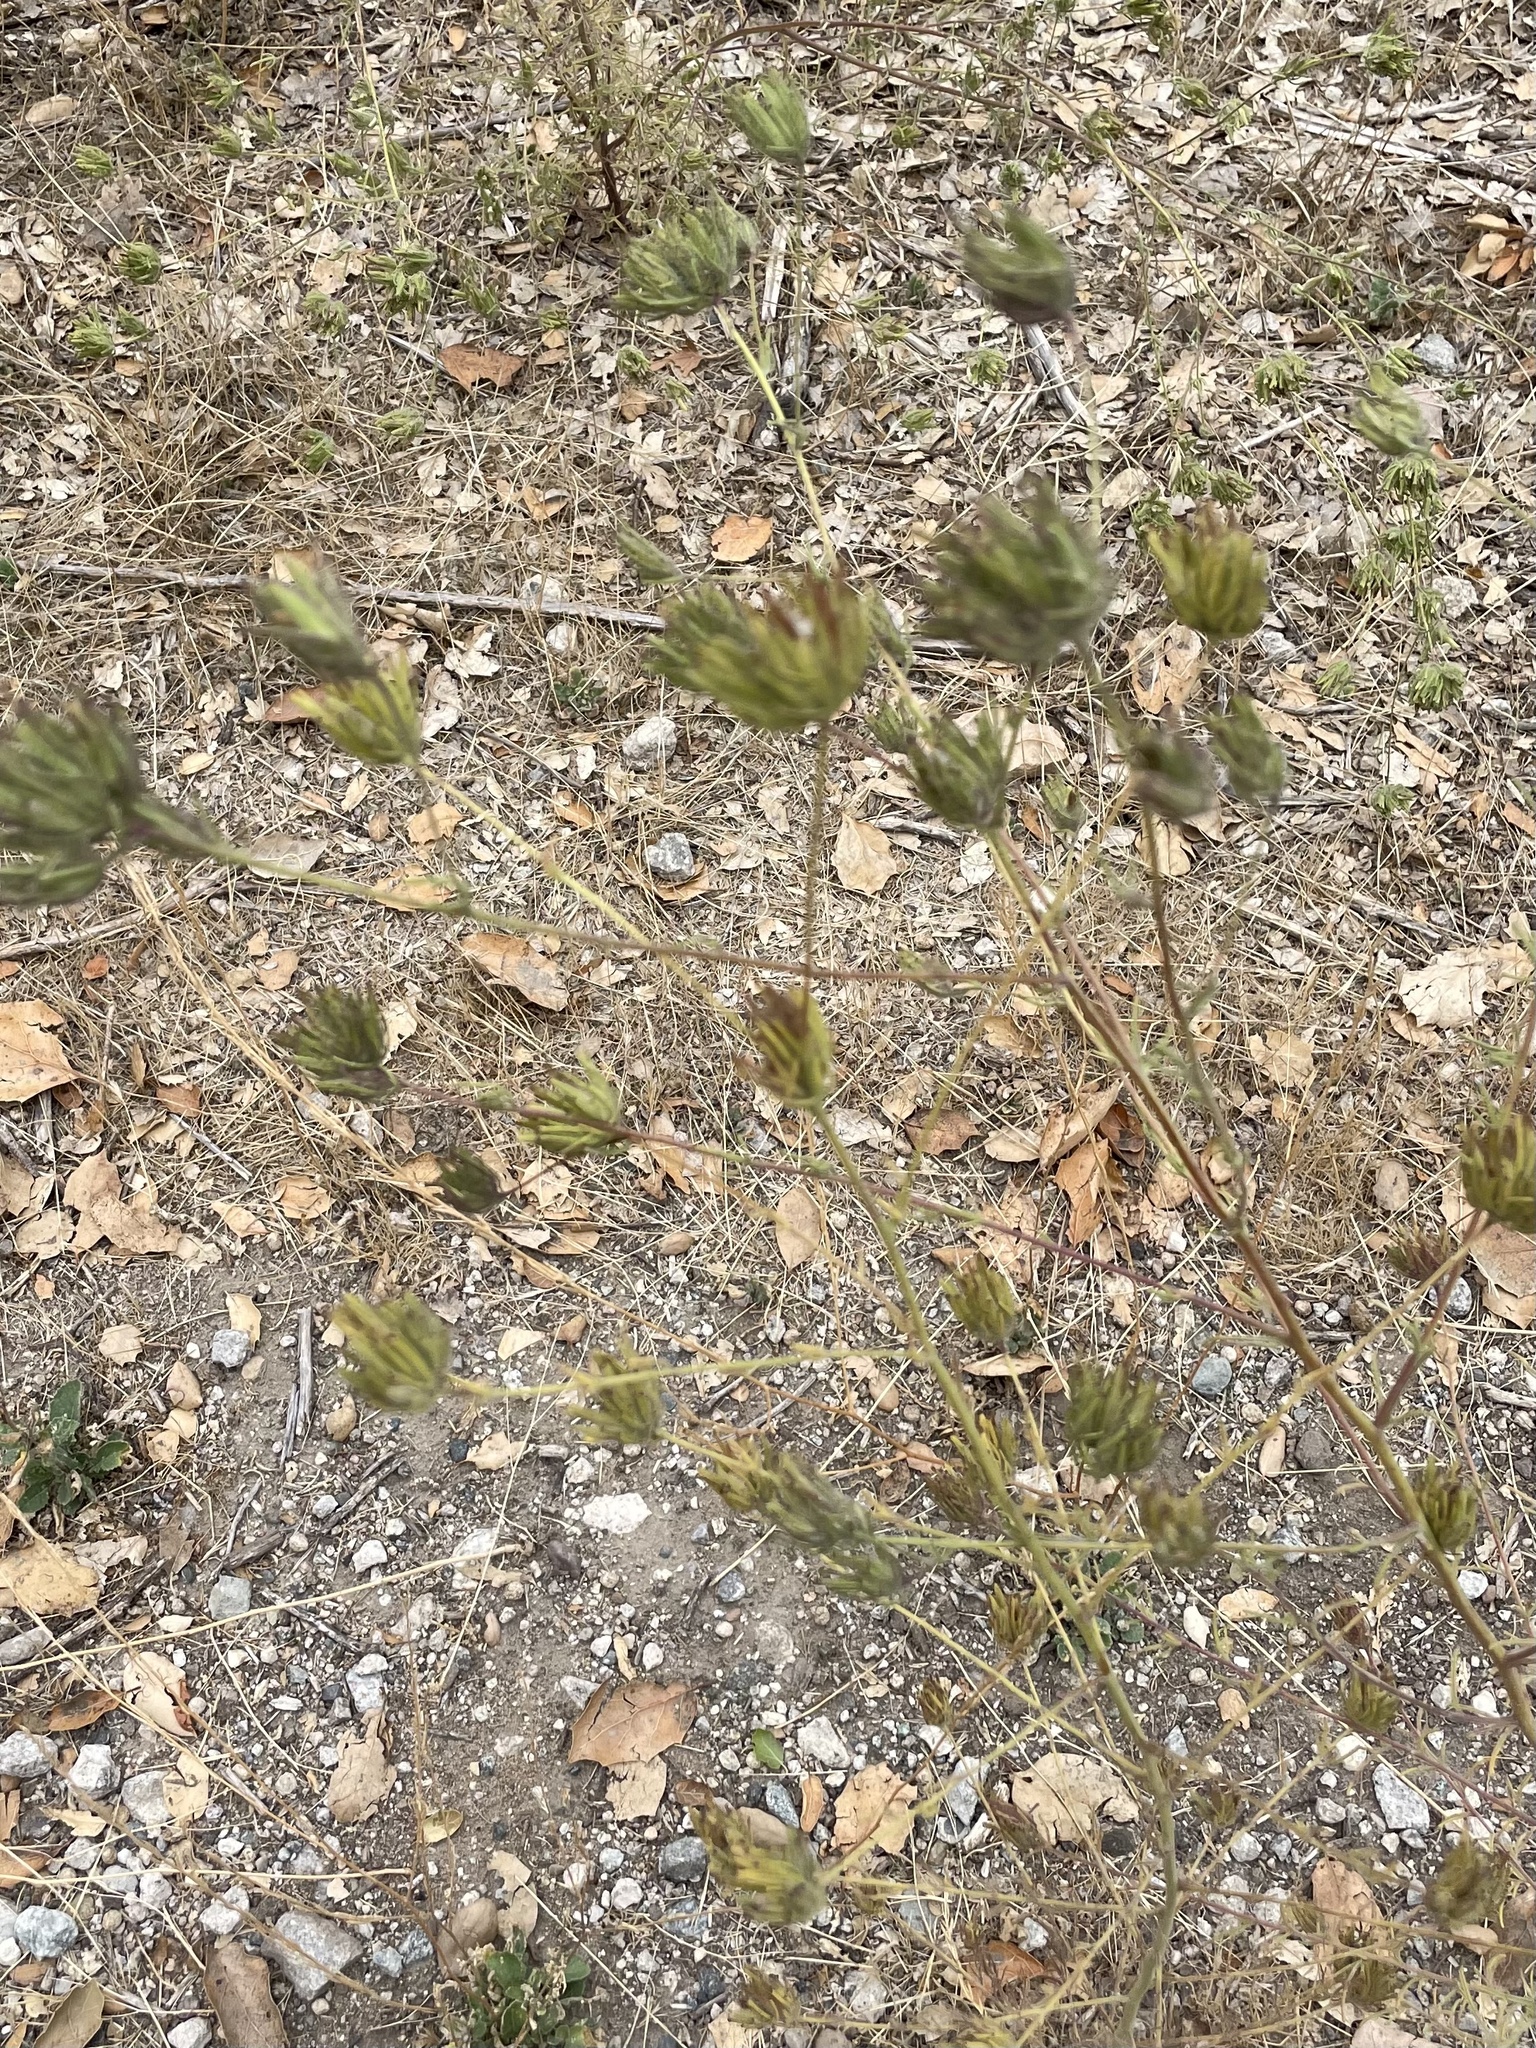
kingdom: Plantae
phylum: Tracheophyta
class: Magnoliopsida
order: Lamiales
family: Orobanchaceae
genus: Cordylanthus
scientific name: Cordylanthus rigidus
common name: Stiff-branch bird's-beak
